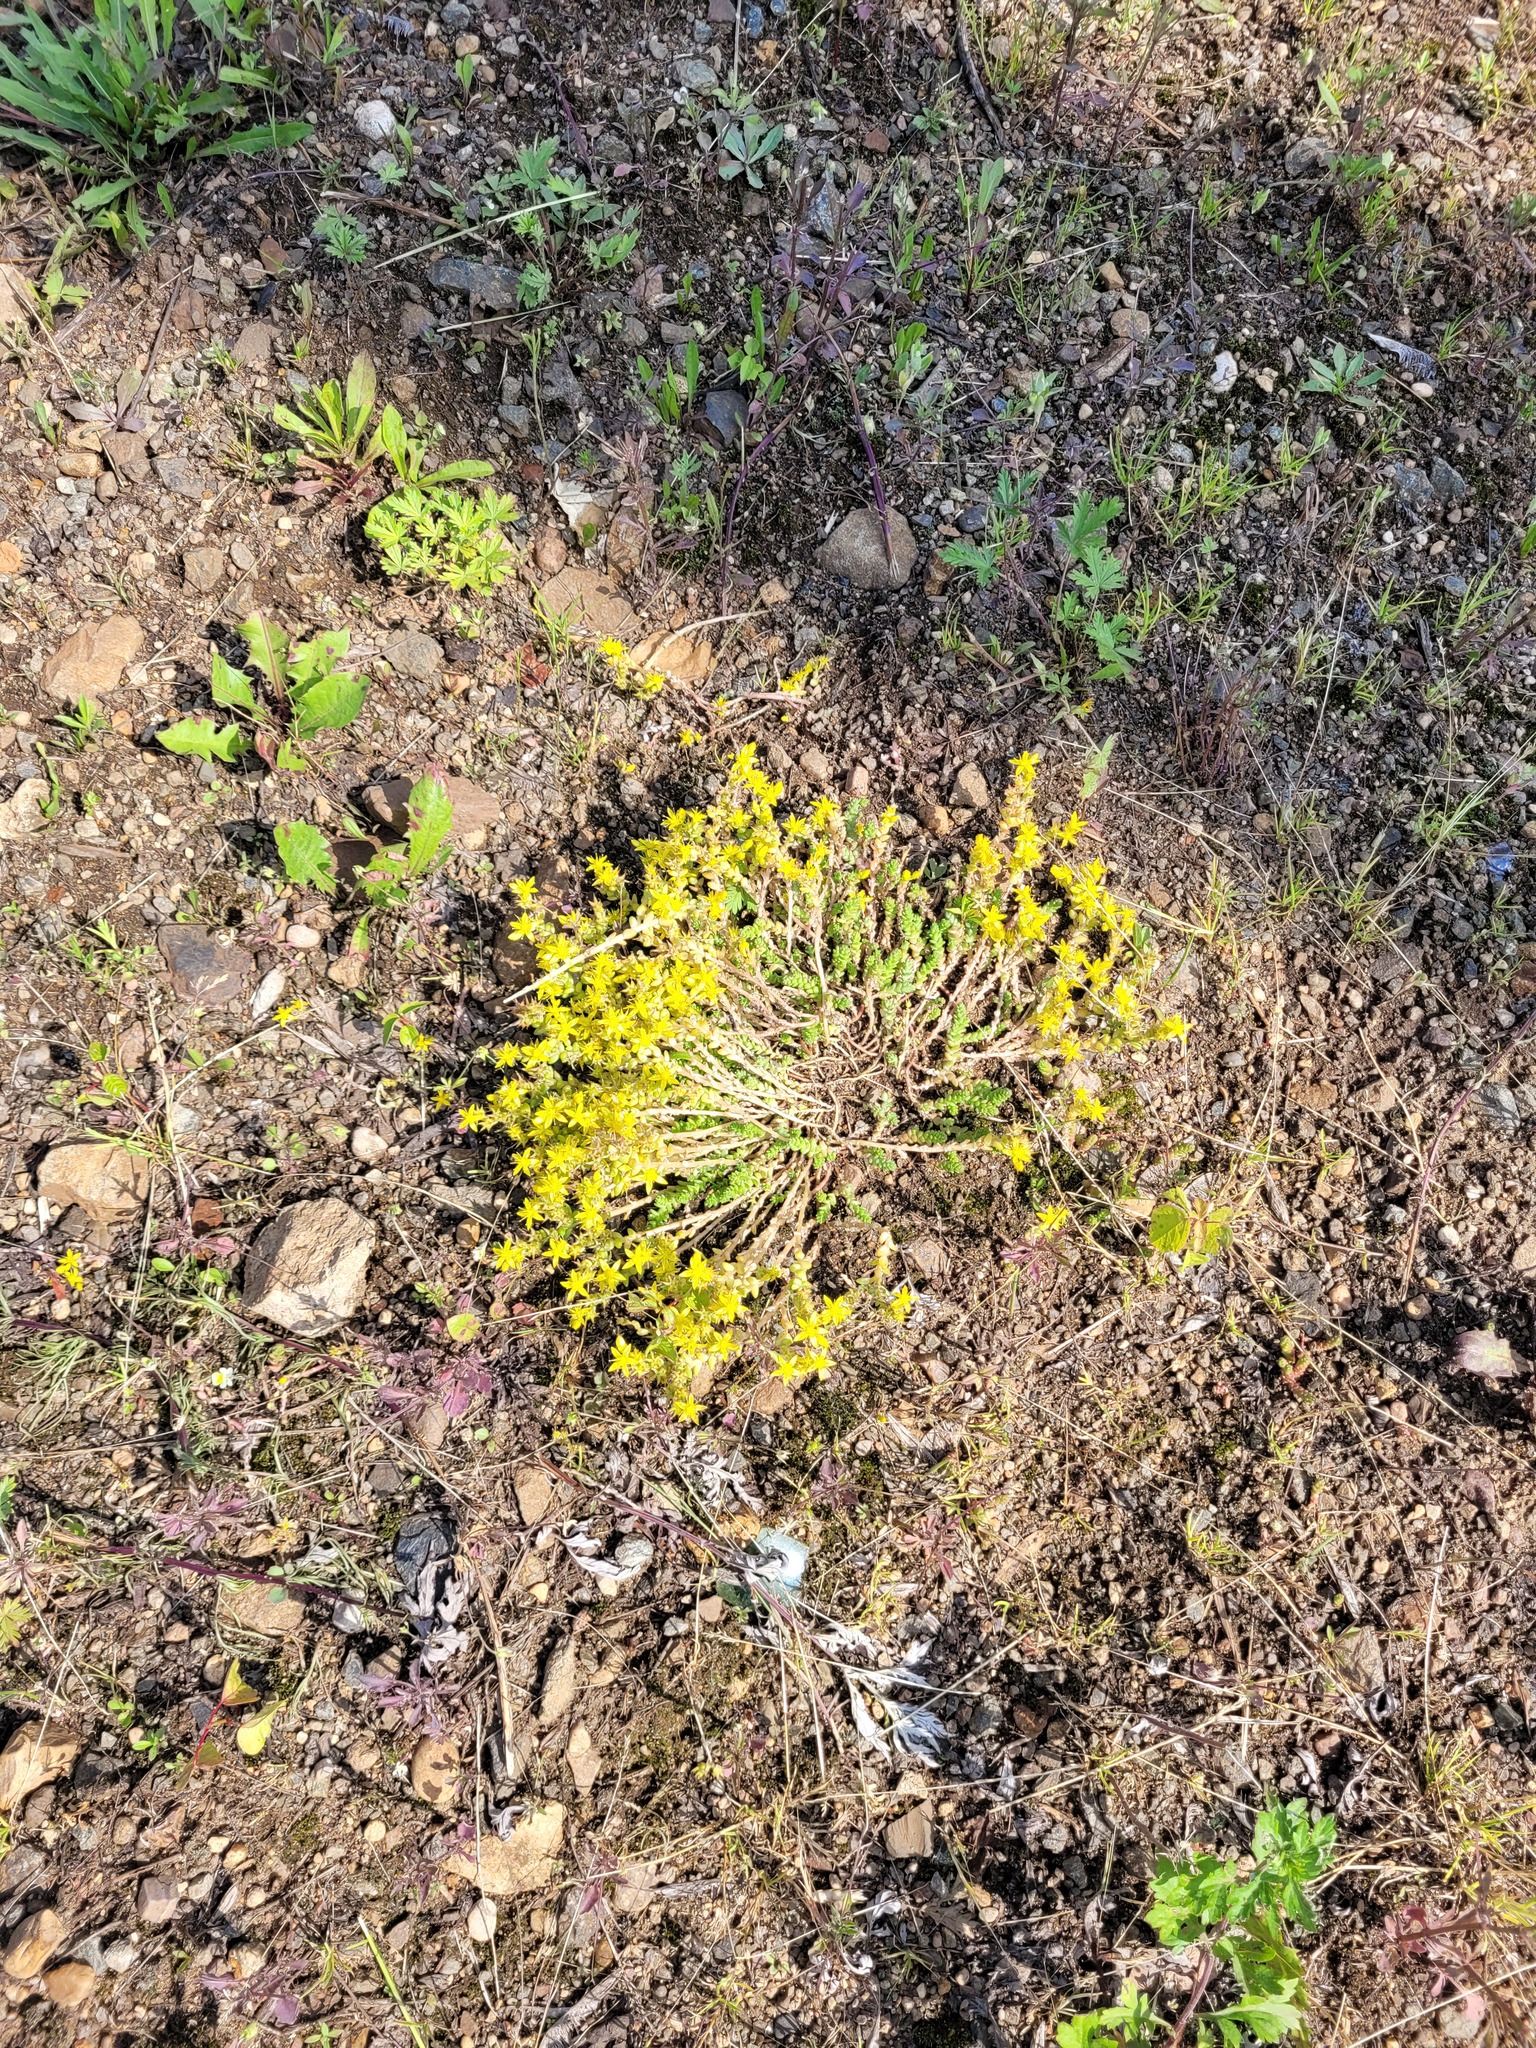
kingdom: Plantae
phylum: Tracheophyta
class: Magnoliopsida
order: Saxifragales
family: Crassulaceae
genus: Sedum
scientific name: Sedum acre
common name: Biting stonecrop
